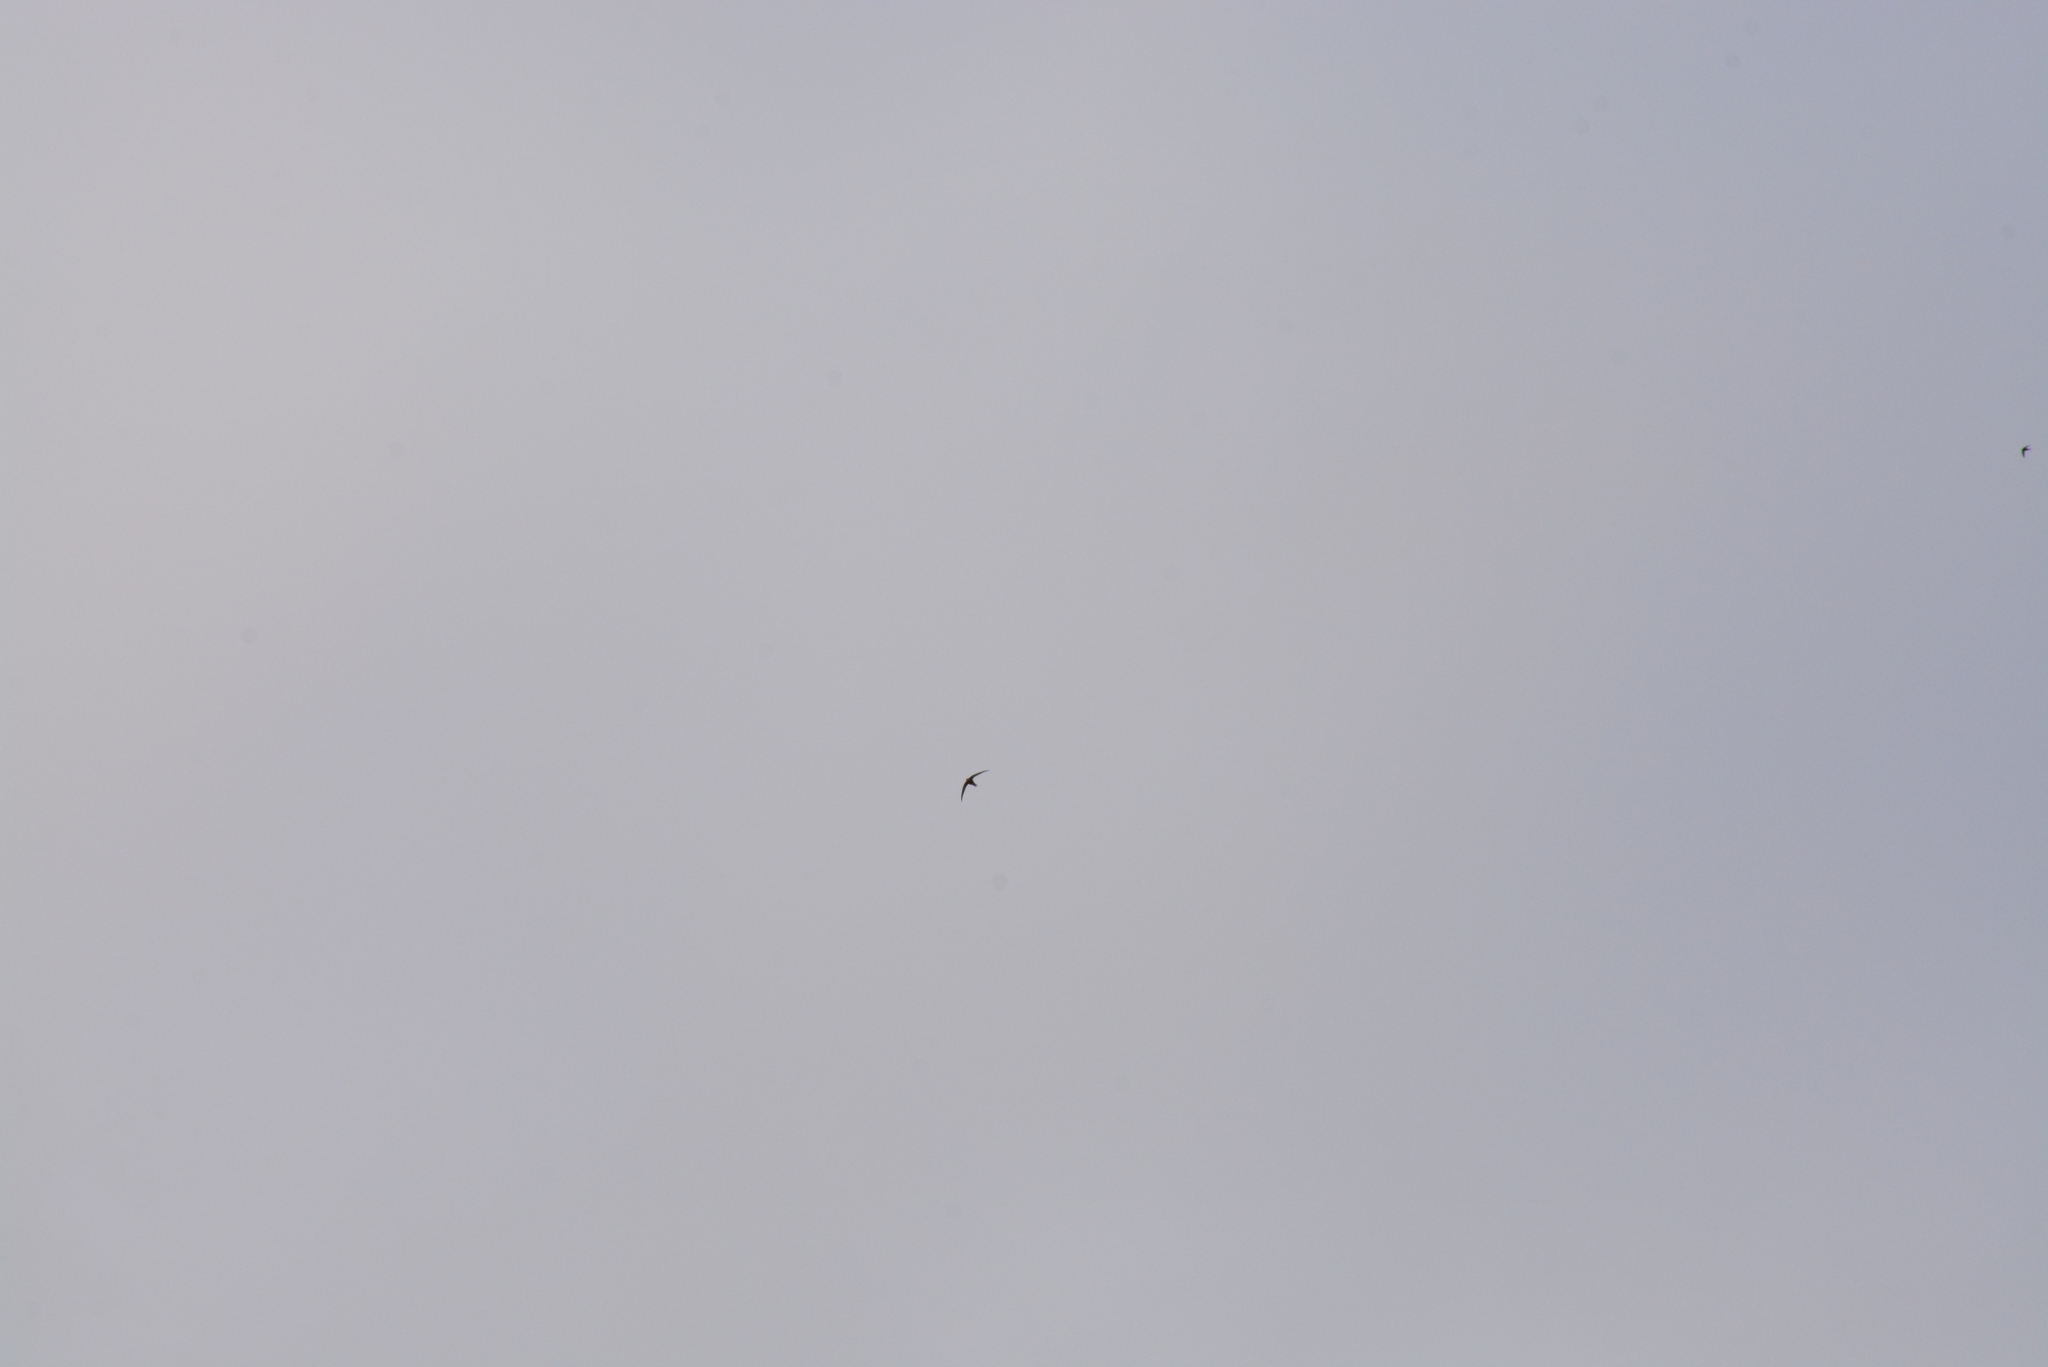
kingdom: Animalia
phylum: Chordata
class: Aves
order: Apodiformes
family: Apodidae
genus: Apus
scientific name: Apus apus
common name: Common swift
